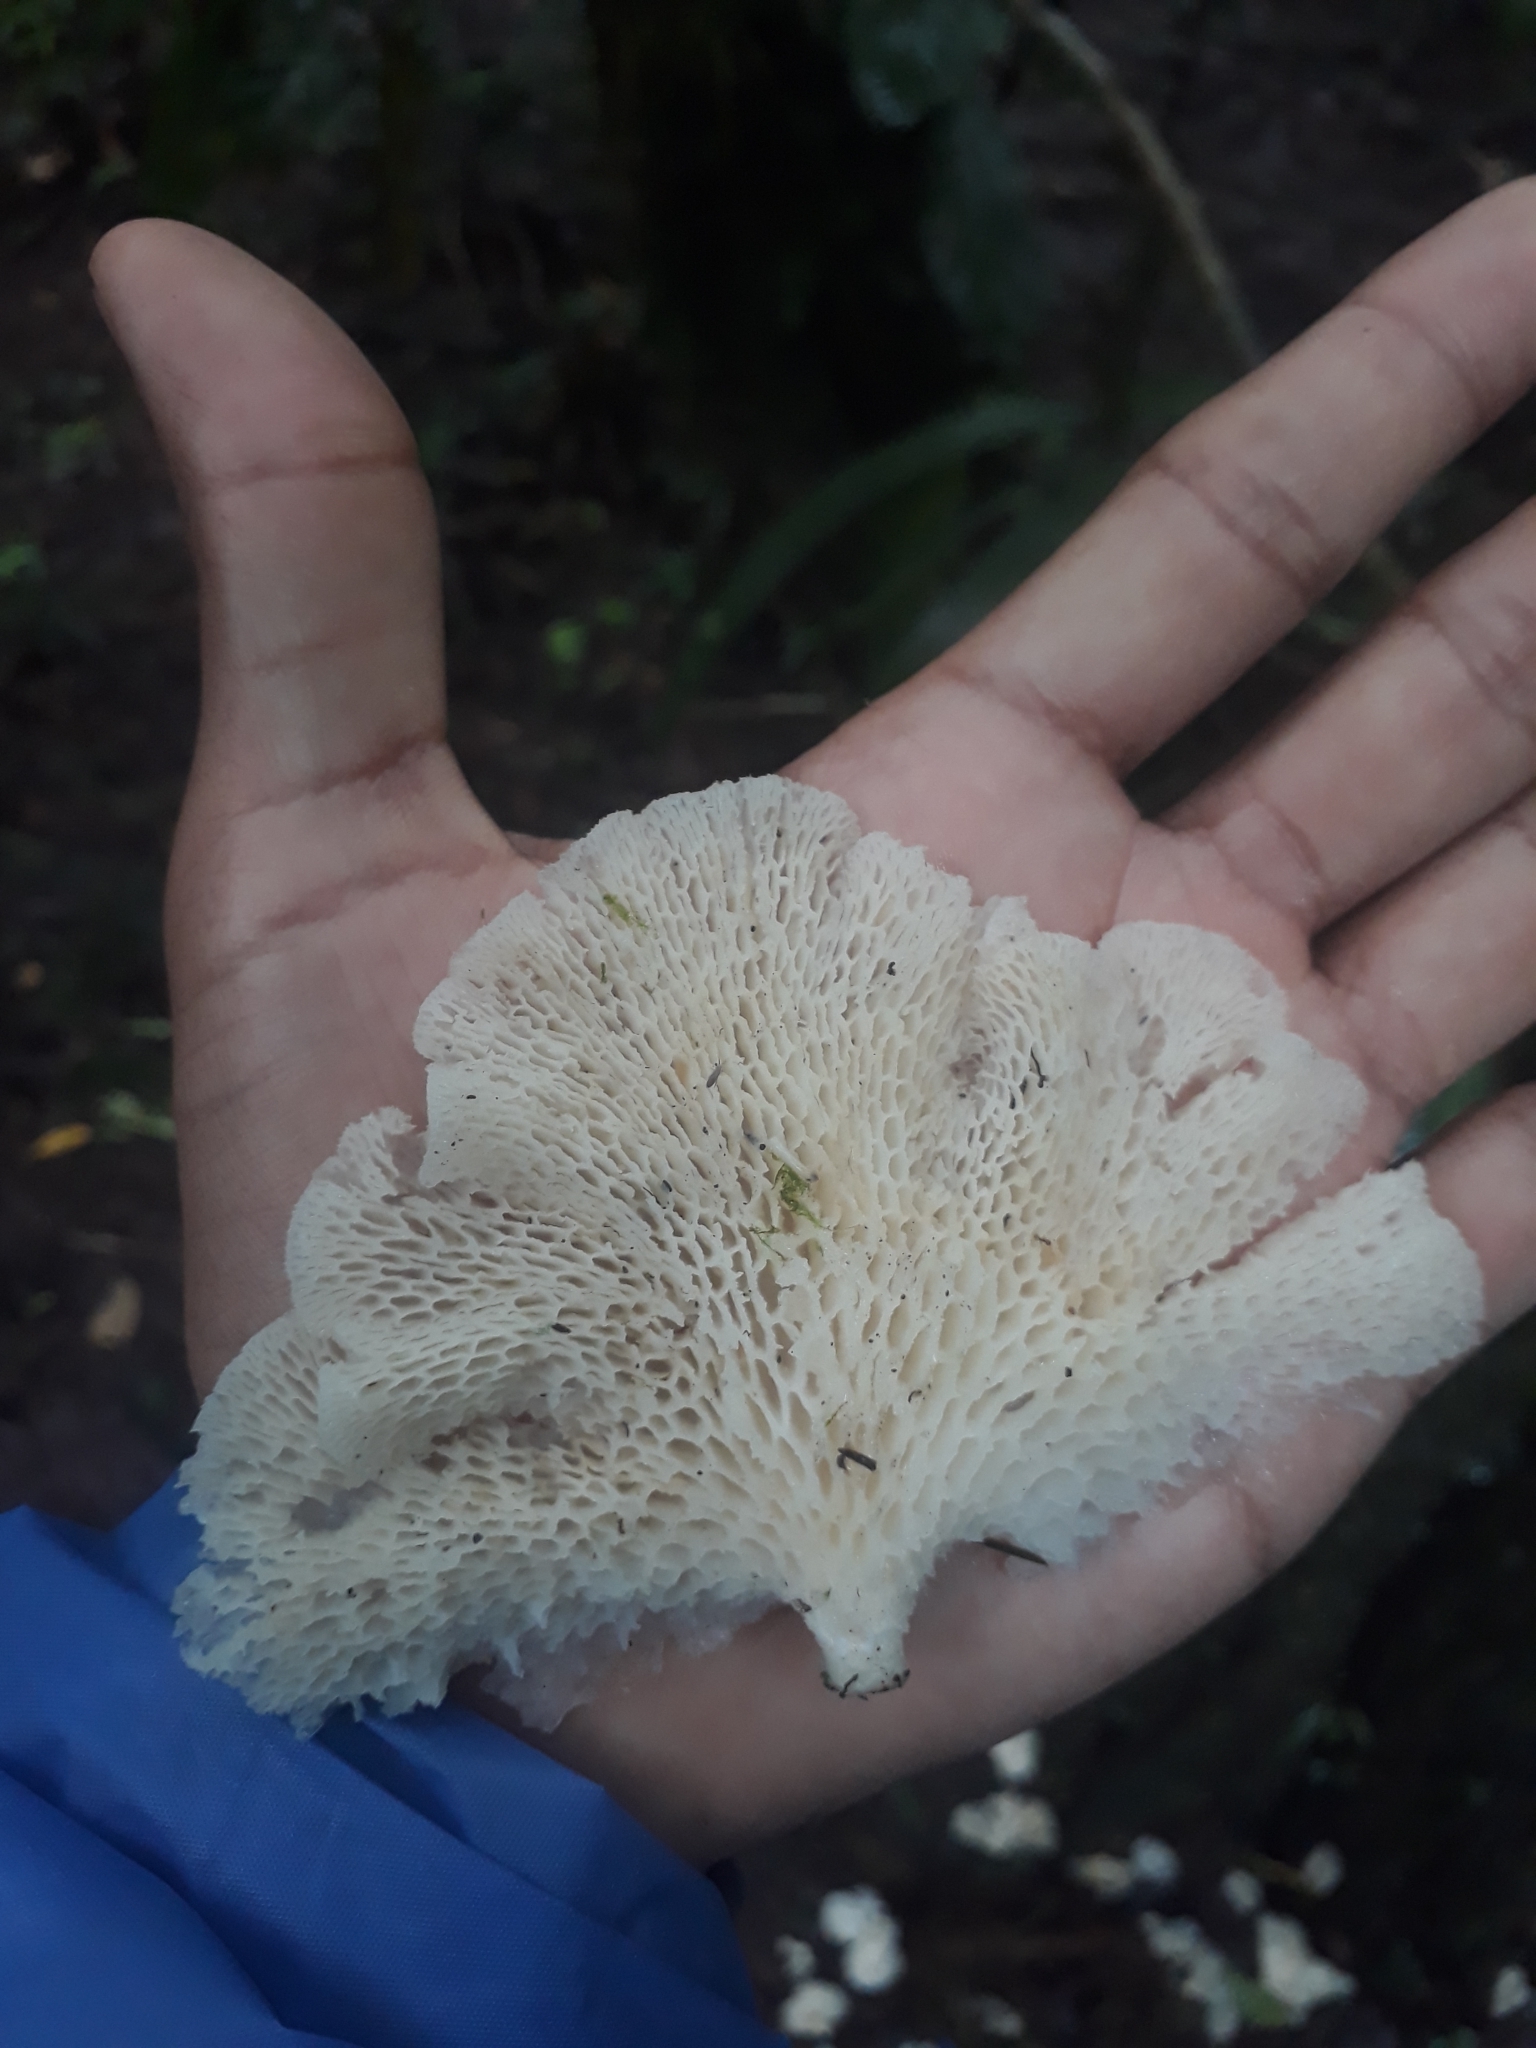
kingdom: Fungi
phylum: Basidiomycota
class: Agaricomycetes
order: Polyporales
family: Polyporaceae
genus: Favolus
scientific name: Favolus tenuiculus
